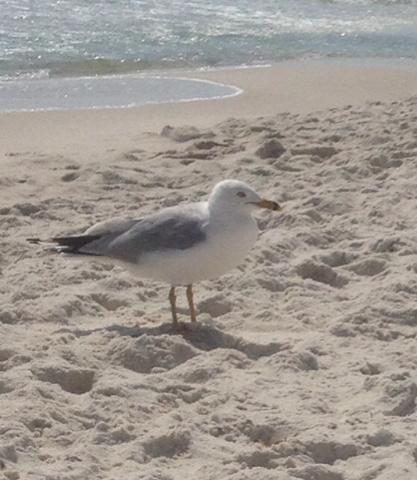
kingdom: Animalia
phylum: Chordata
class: Aves
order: Charadriiformes
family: Laridae
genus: Larus
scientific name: Larus delawarensis
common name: Ring-billed gull
